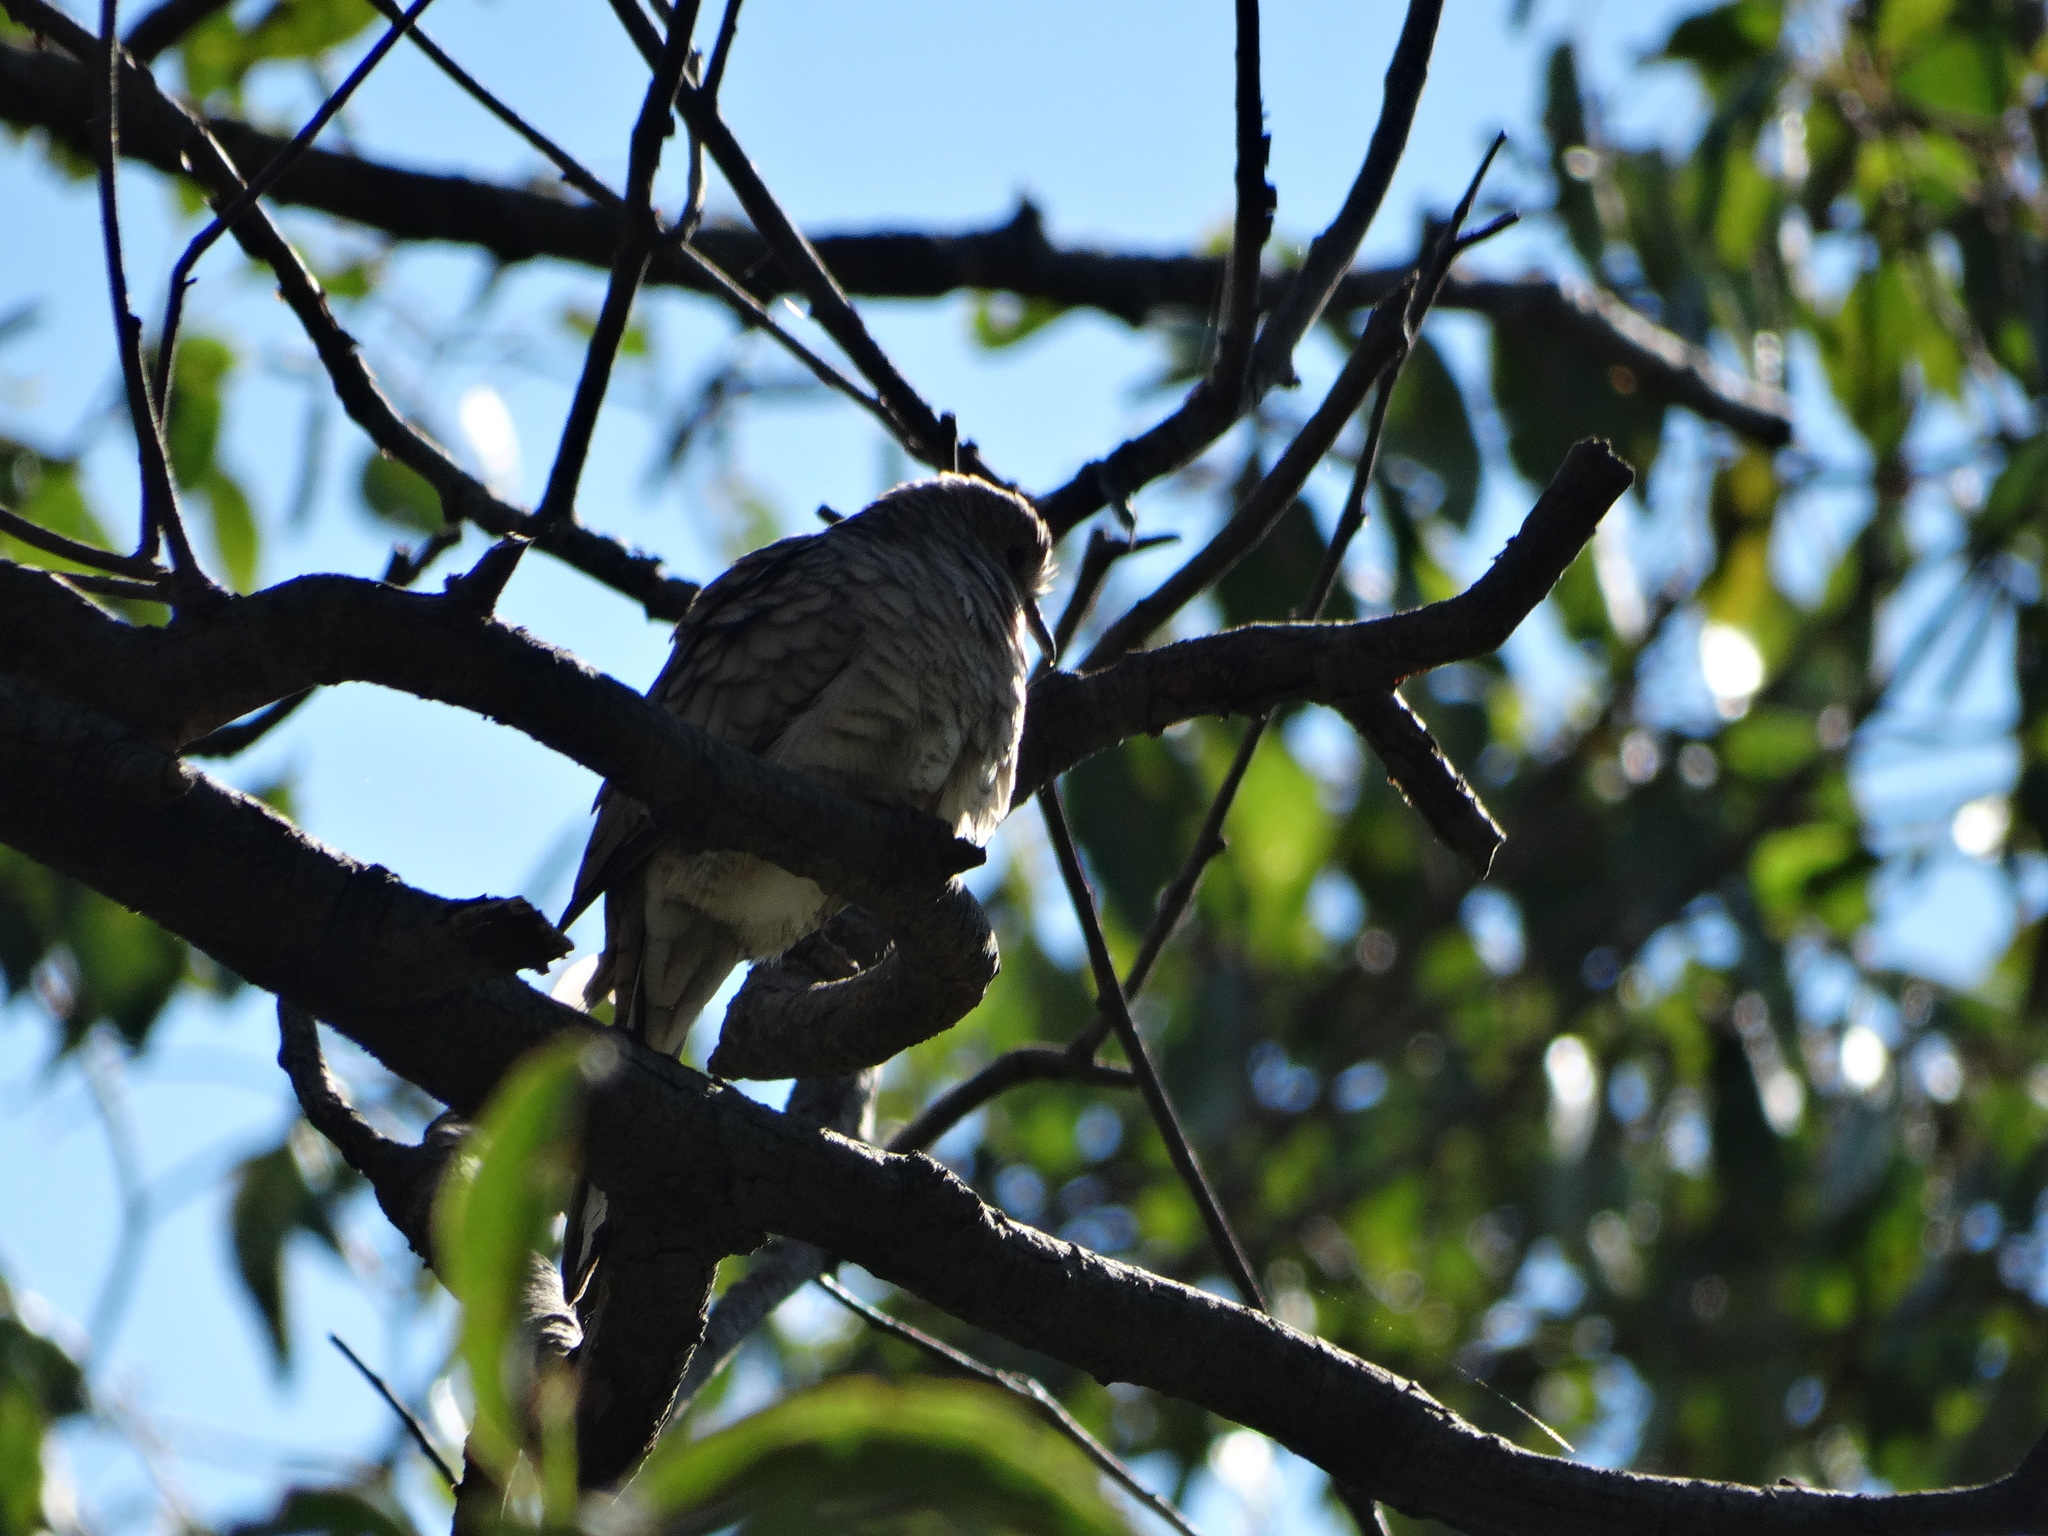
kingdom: Animalia
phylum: Chordata
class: Aves
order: Columbiformes
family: Columbidae
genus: Columbina
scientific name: Columbina inca
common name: Inca dove
